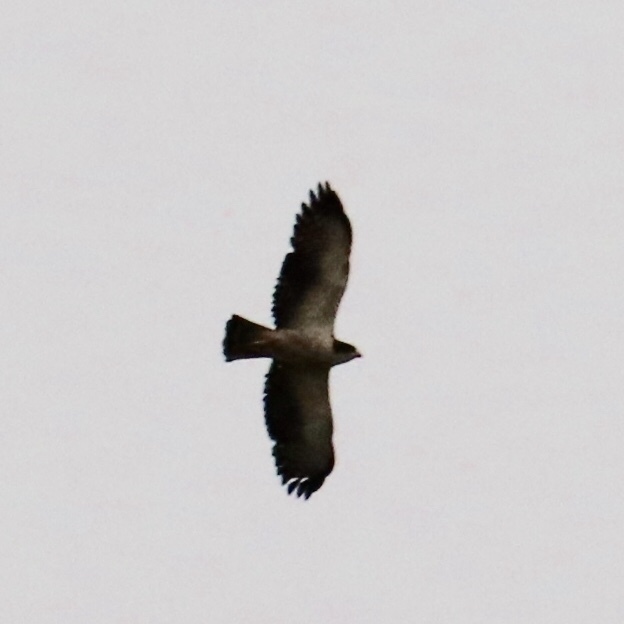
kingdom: Animalia
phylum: Chordata
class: Aves
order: Accipitriformes
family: Accipitridae
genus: Buteo
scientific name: Buteo brachyurus
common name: Short-tailed hawk
